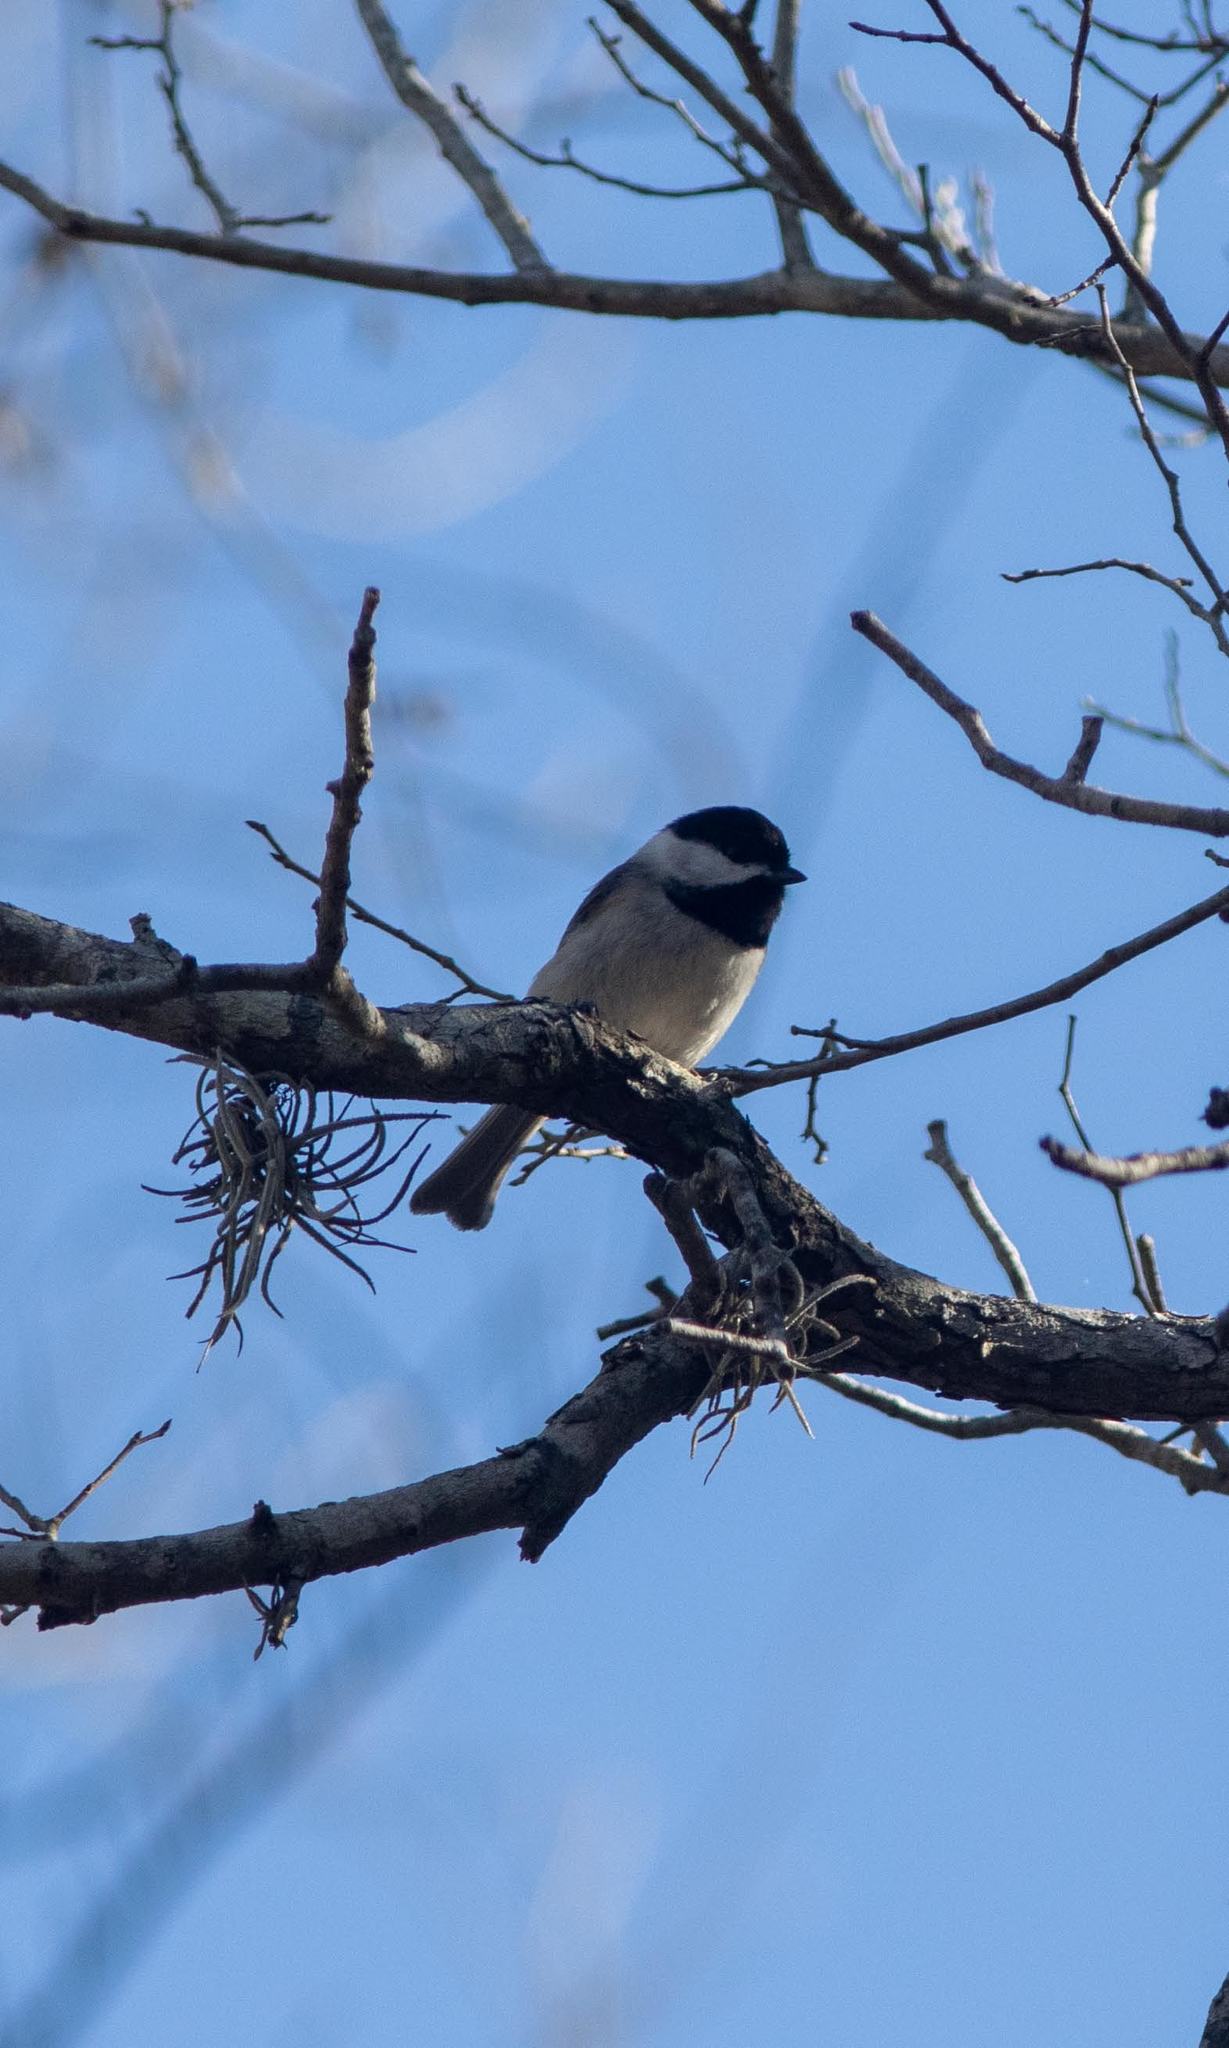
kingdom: Animalia
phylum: Chordata
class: Aves
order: Passeriformes
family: Paridae
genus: Poecile
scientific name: Poecile carolinensis
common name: Carolina chickadee
